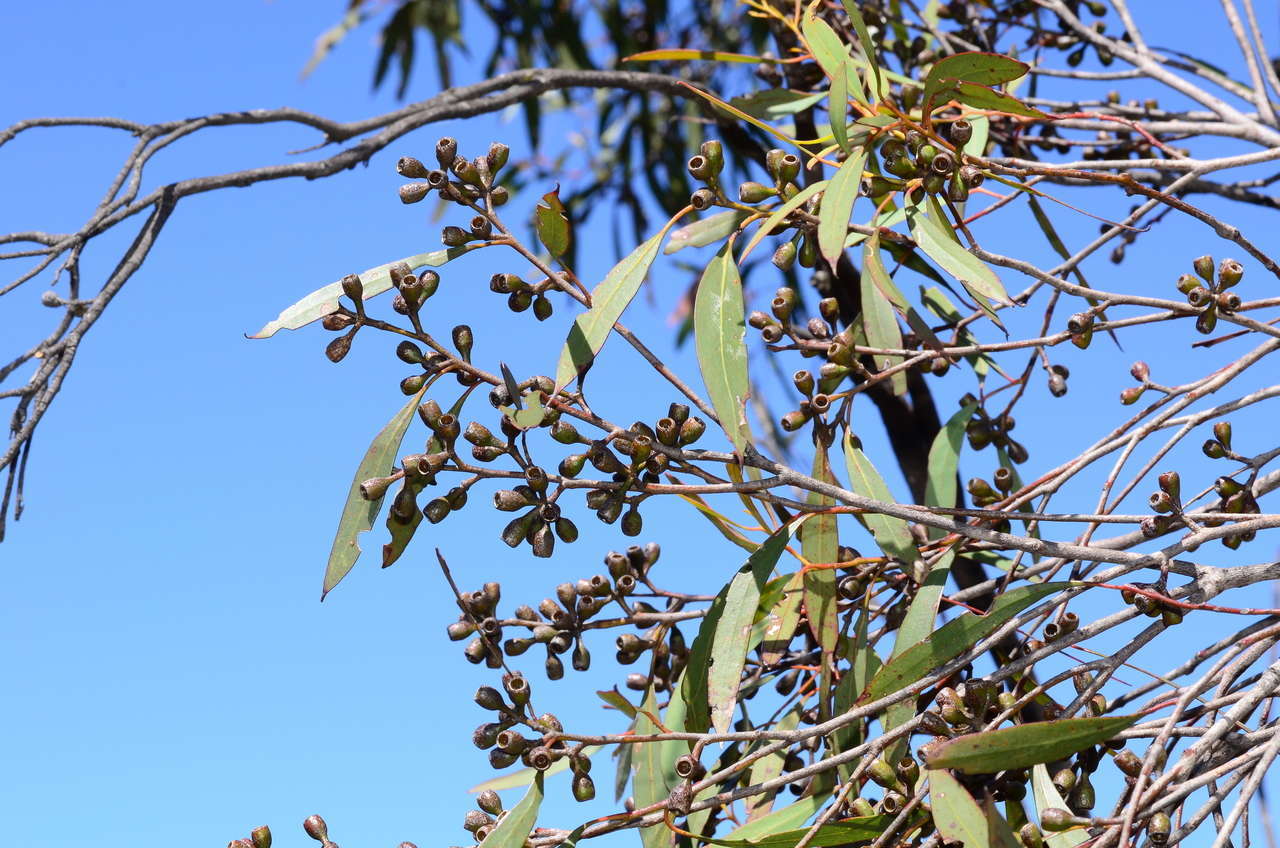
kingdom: Plantae
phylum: Tracheophyta
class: Magnoliopsida
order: Myrtales
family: Myrtaceae
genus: Eucalyptus
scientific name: Eucalyptus wimmerensis
